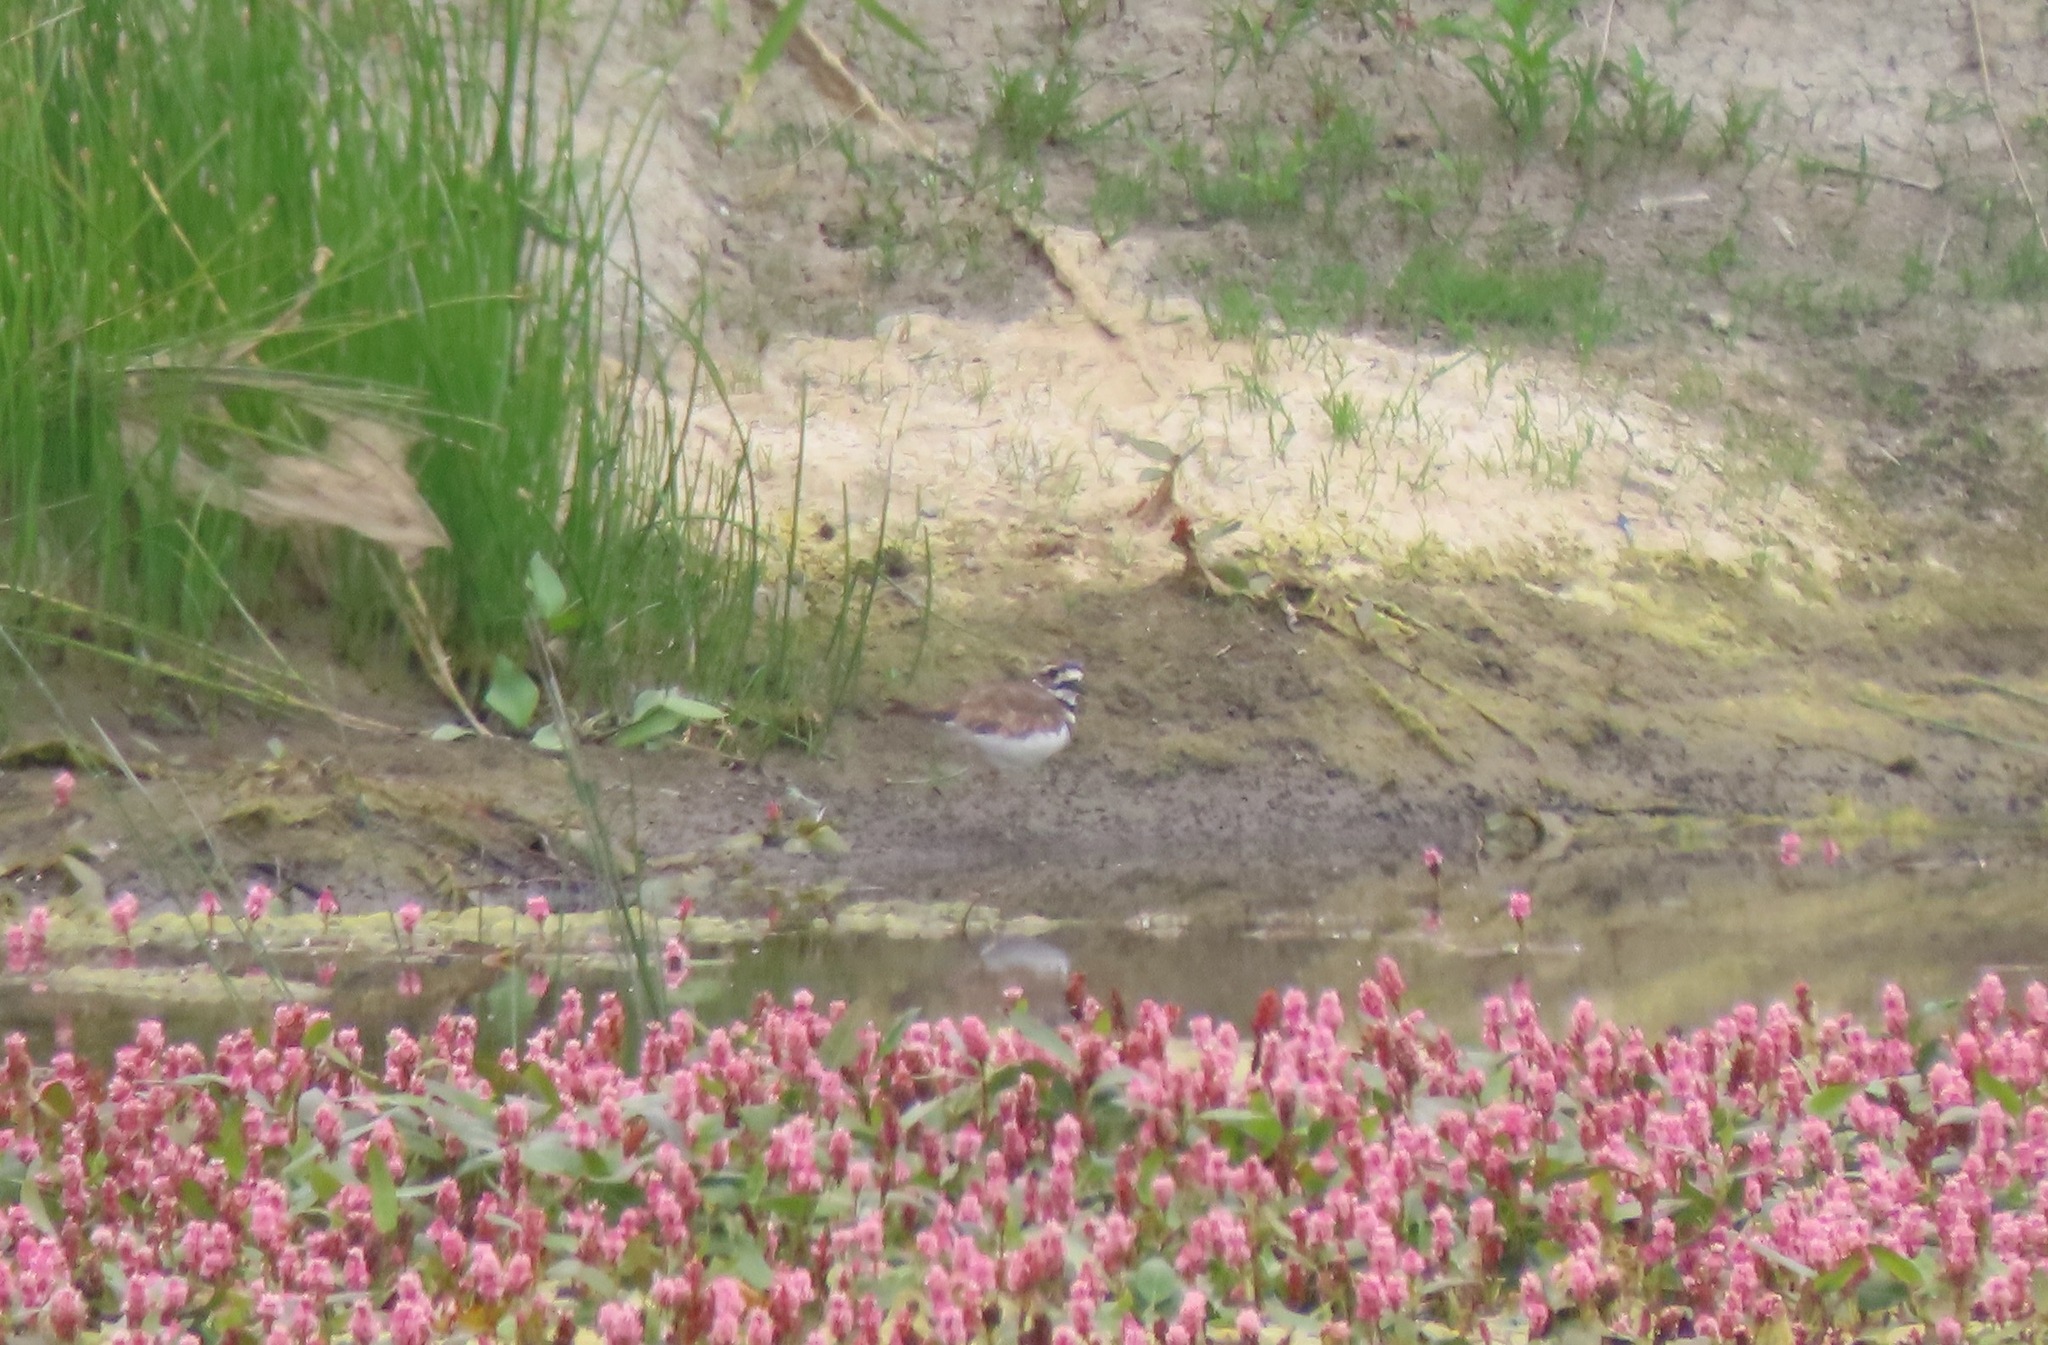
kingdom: Animalia
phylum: Chordata
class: Aves
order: Charadriiformes
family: Charadriidae
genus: Charadrius
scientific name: Charadrius vociferus
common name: Killdeer
